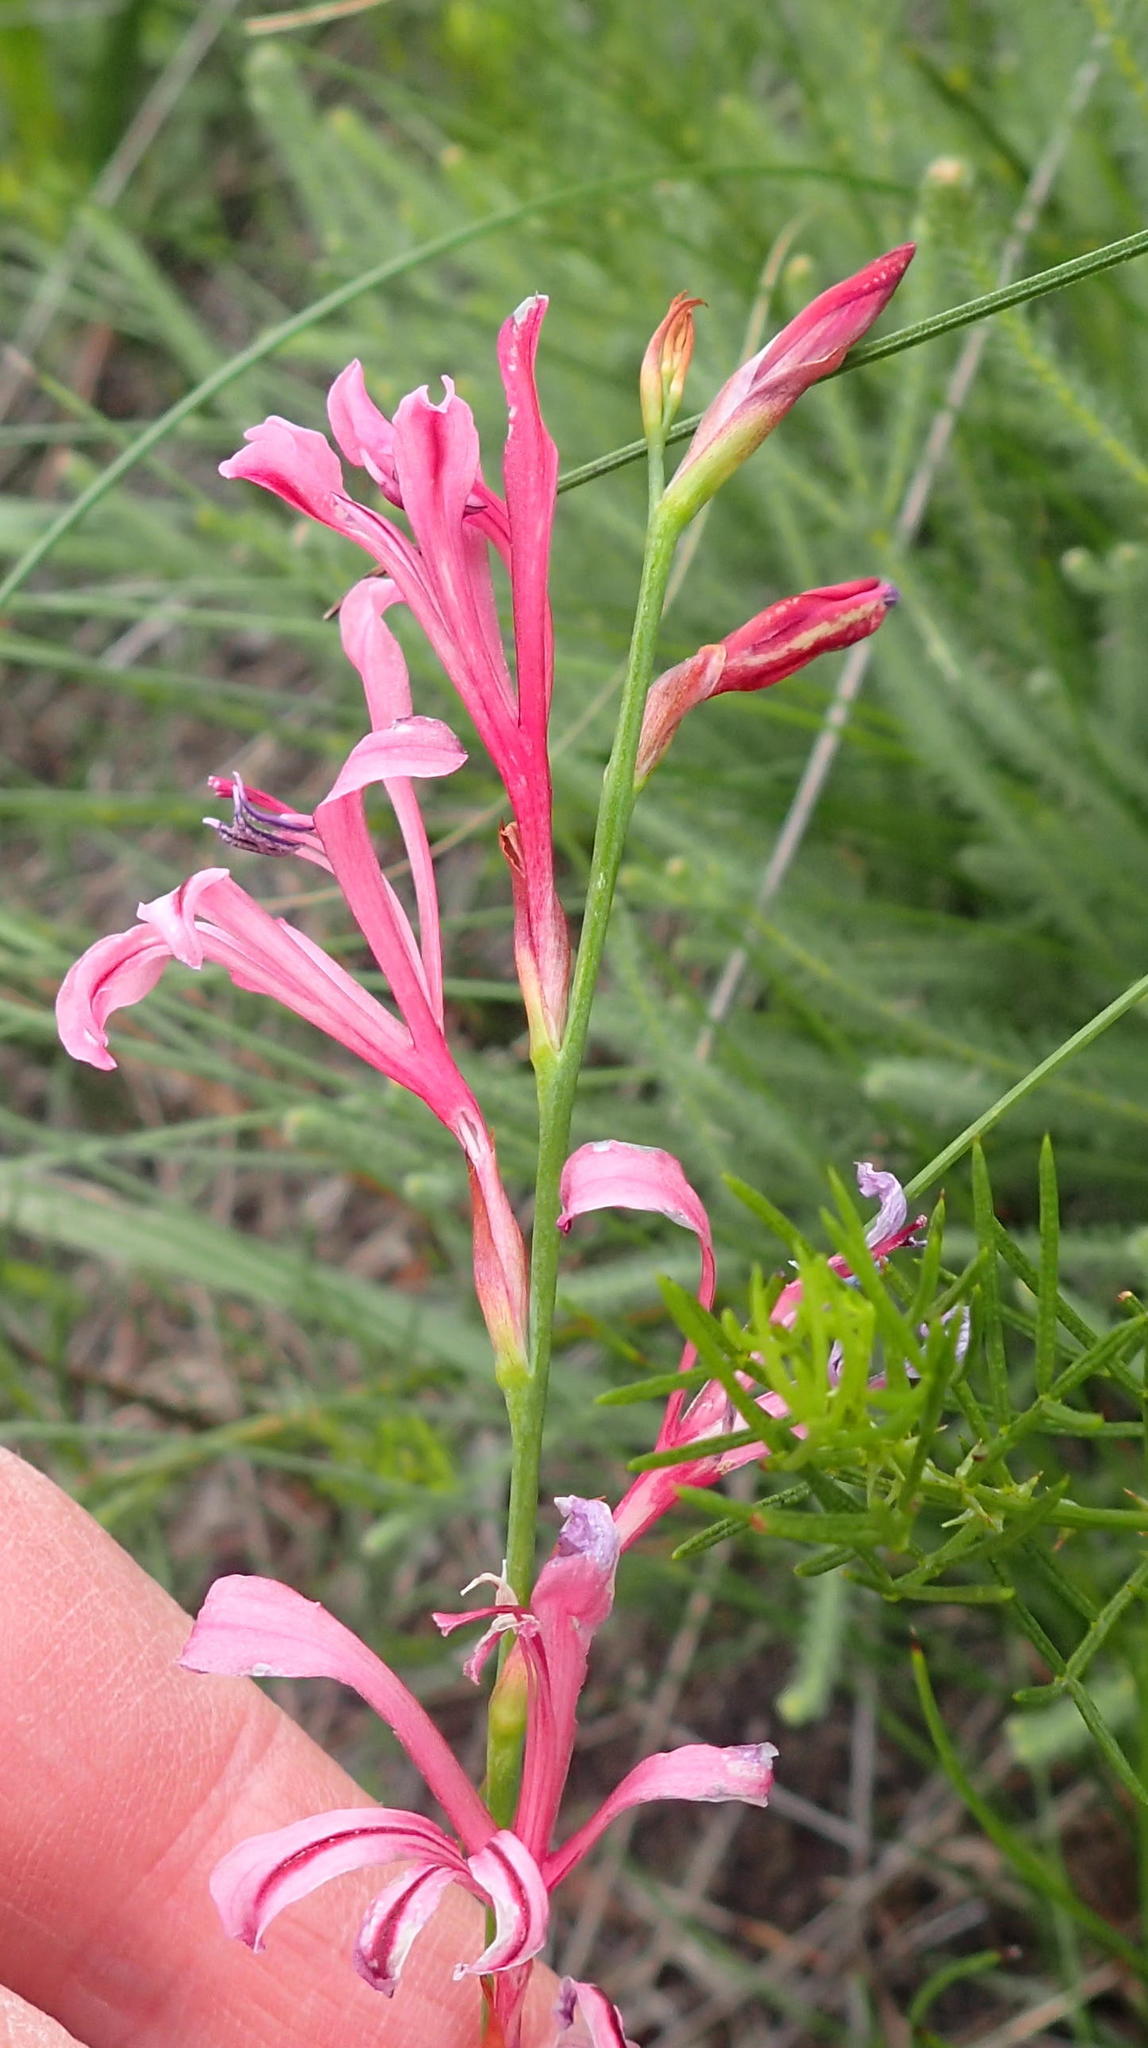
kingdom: Plantae
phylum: Tracheophyta
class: Liliopsida
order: Asparagales
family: Iridaceae
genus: Tritoniopsis
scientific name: Tritoniopsis ramosa
